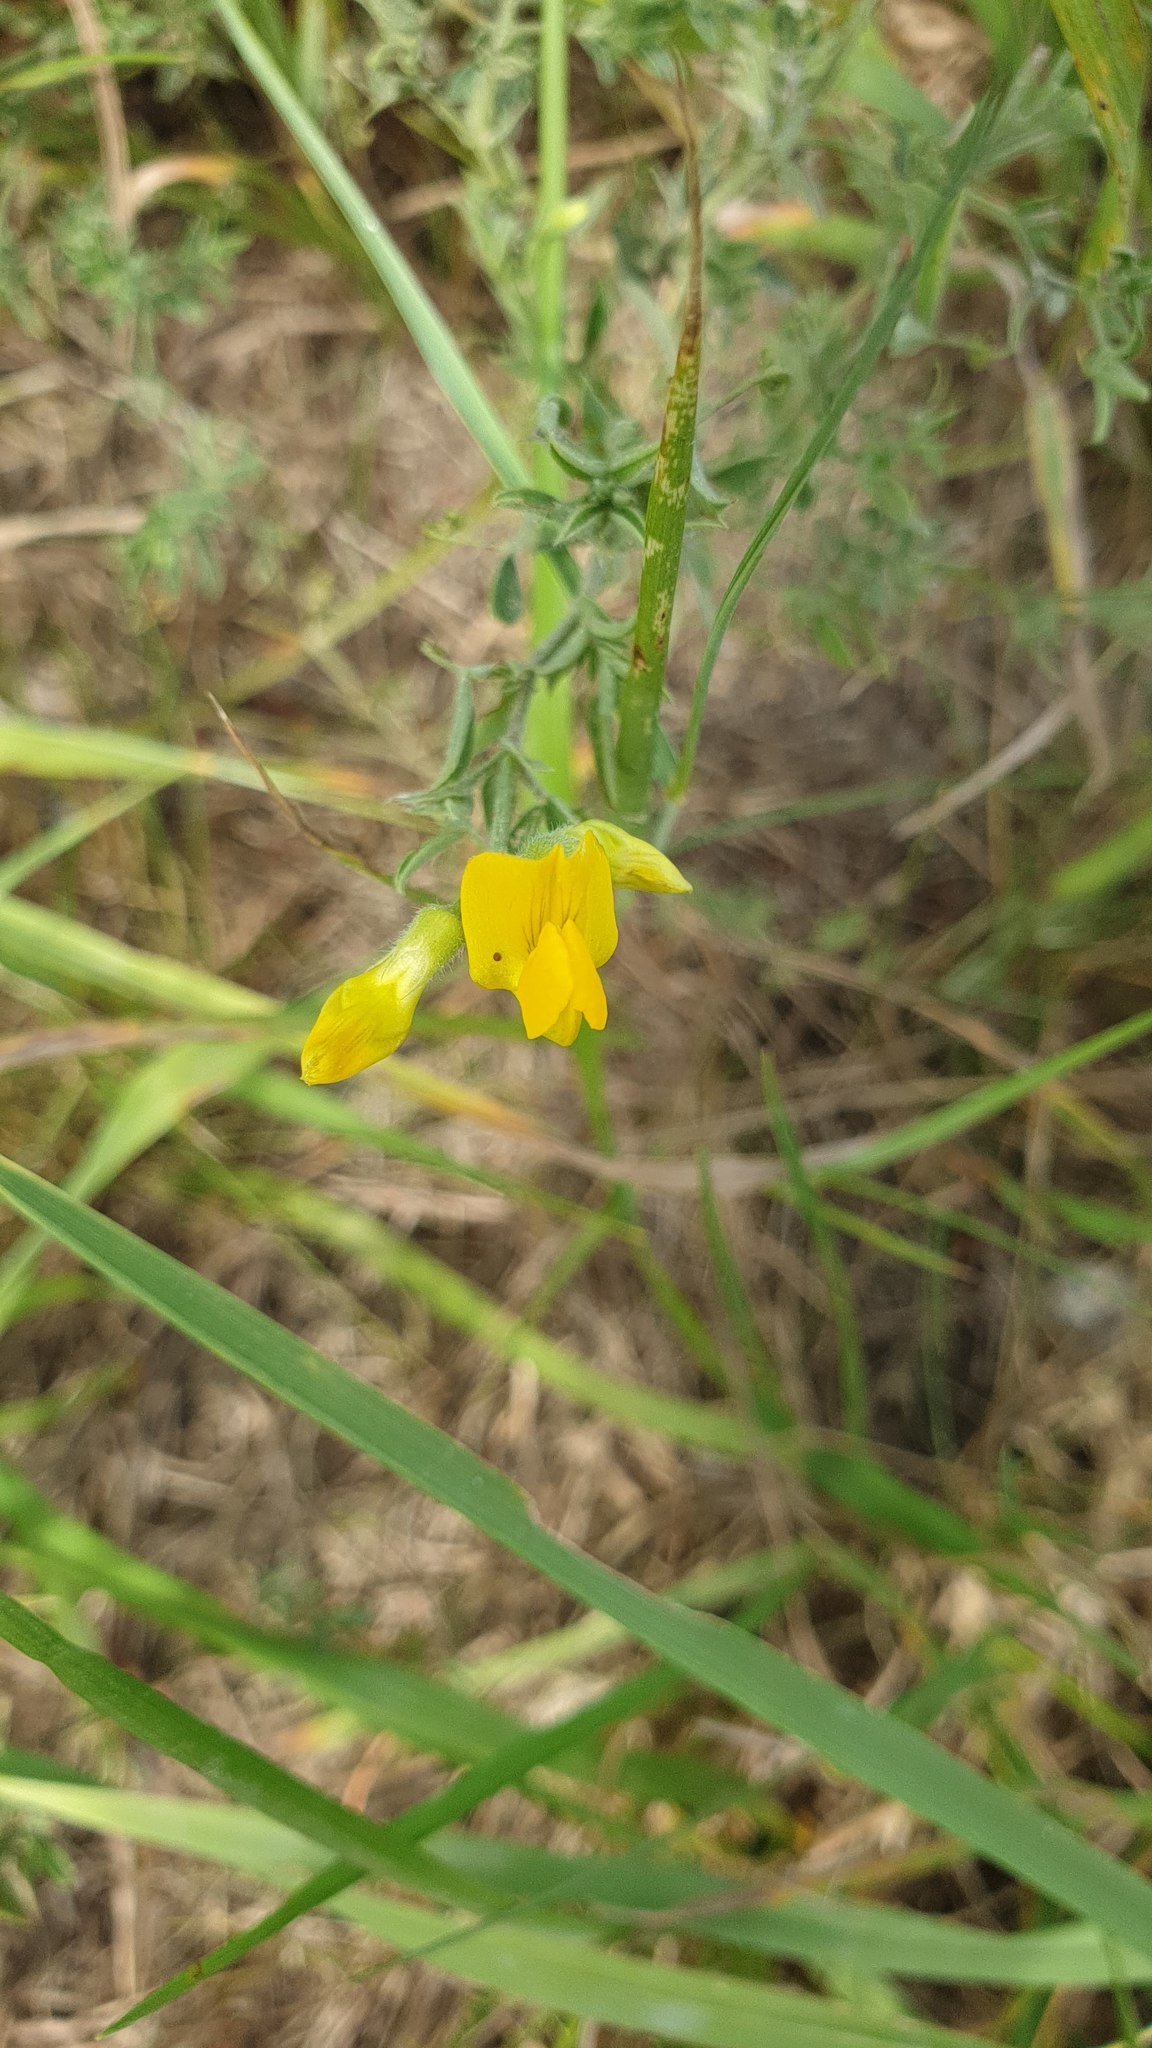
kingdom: Plantae
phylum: Tracheophyta
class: Magnoliopsida
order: Fabales
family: Fabaceae
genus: Lathyrus
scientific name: Lathyrus pratensis
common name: Meadow vetchling
